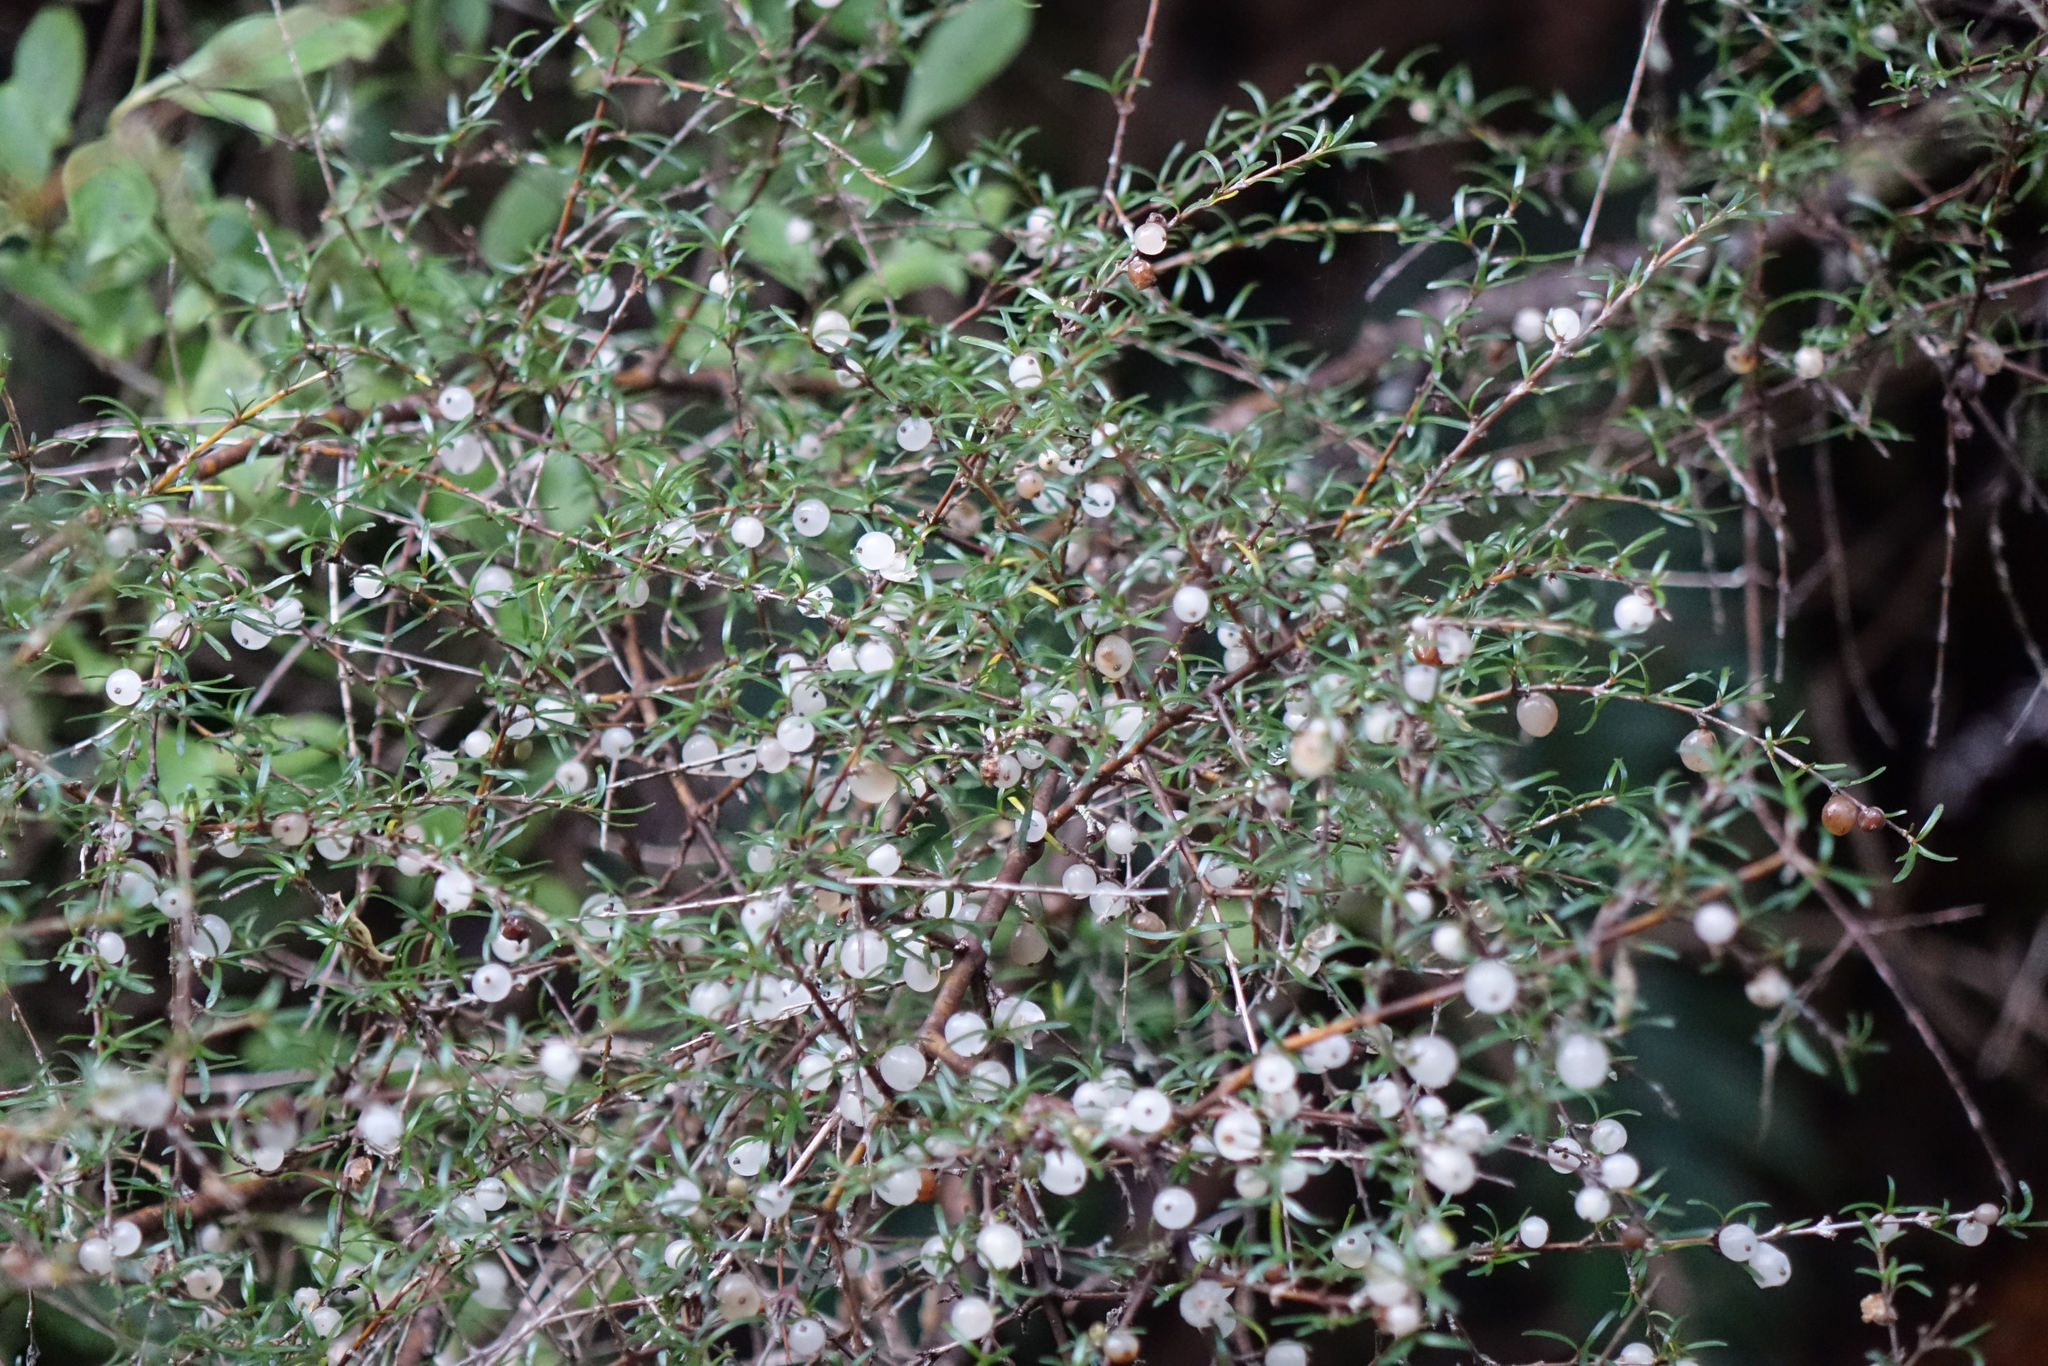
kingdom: Plantae
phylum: Tracheophyta
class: Magnoliopsida
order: Gentianales
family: Rubiaceae
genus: Coprosma
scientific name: Coprosma rugosa
